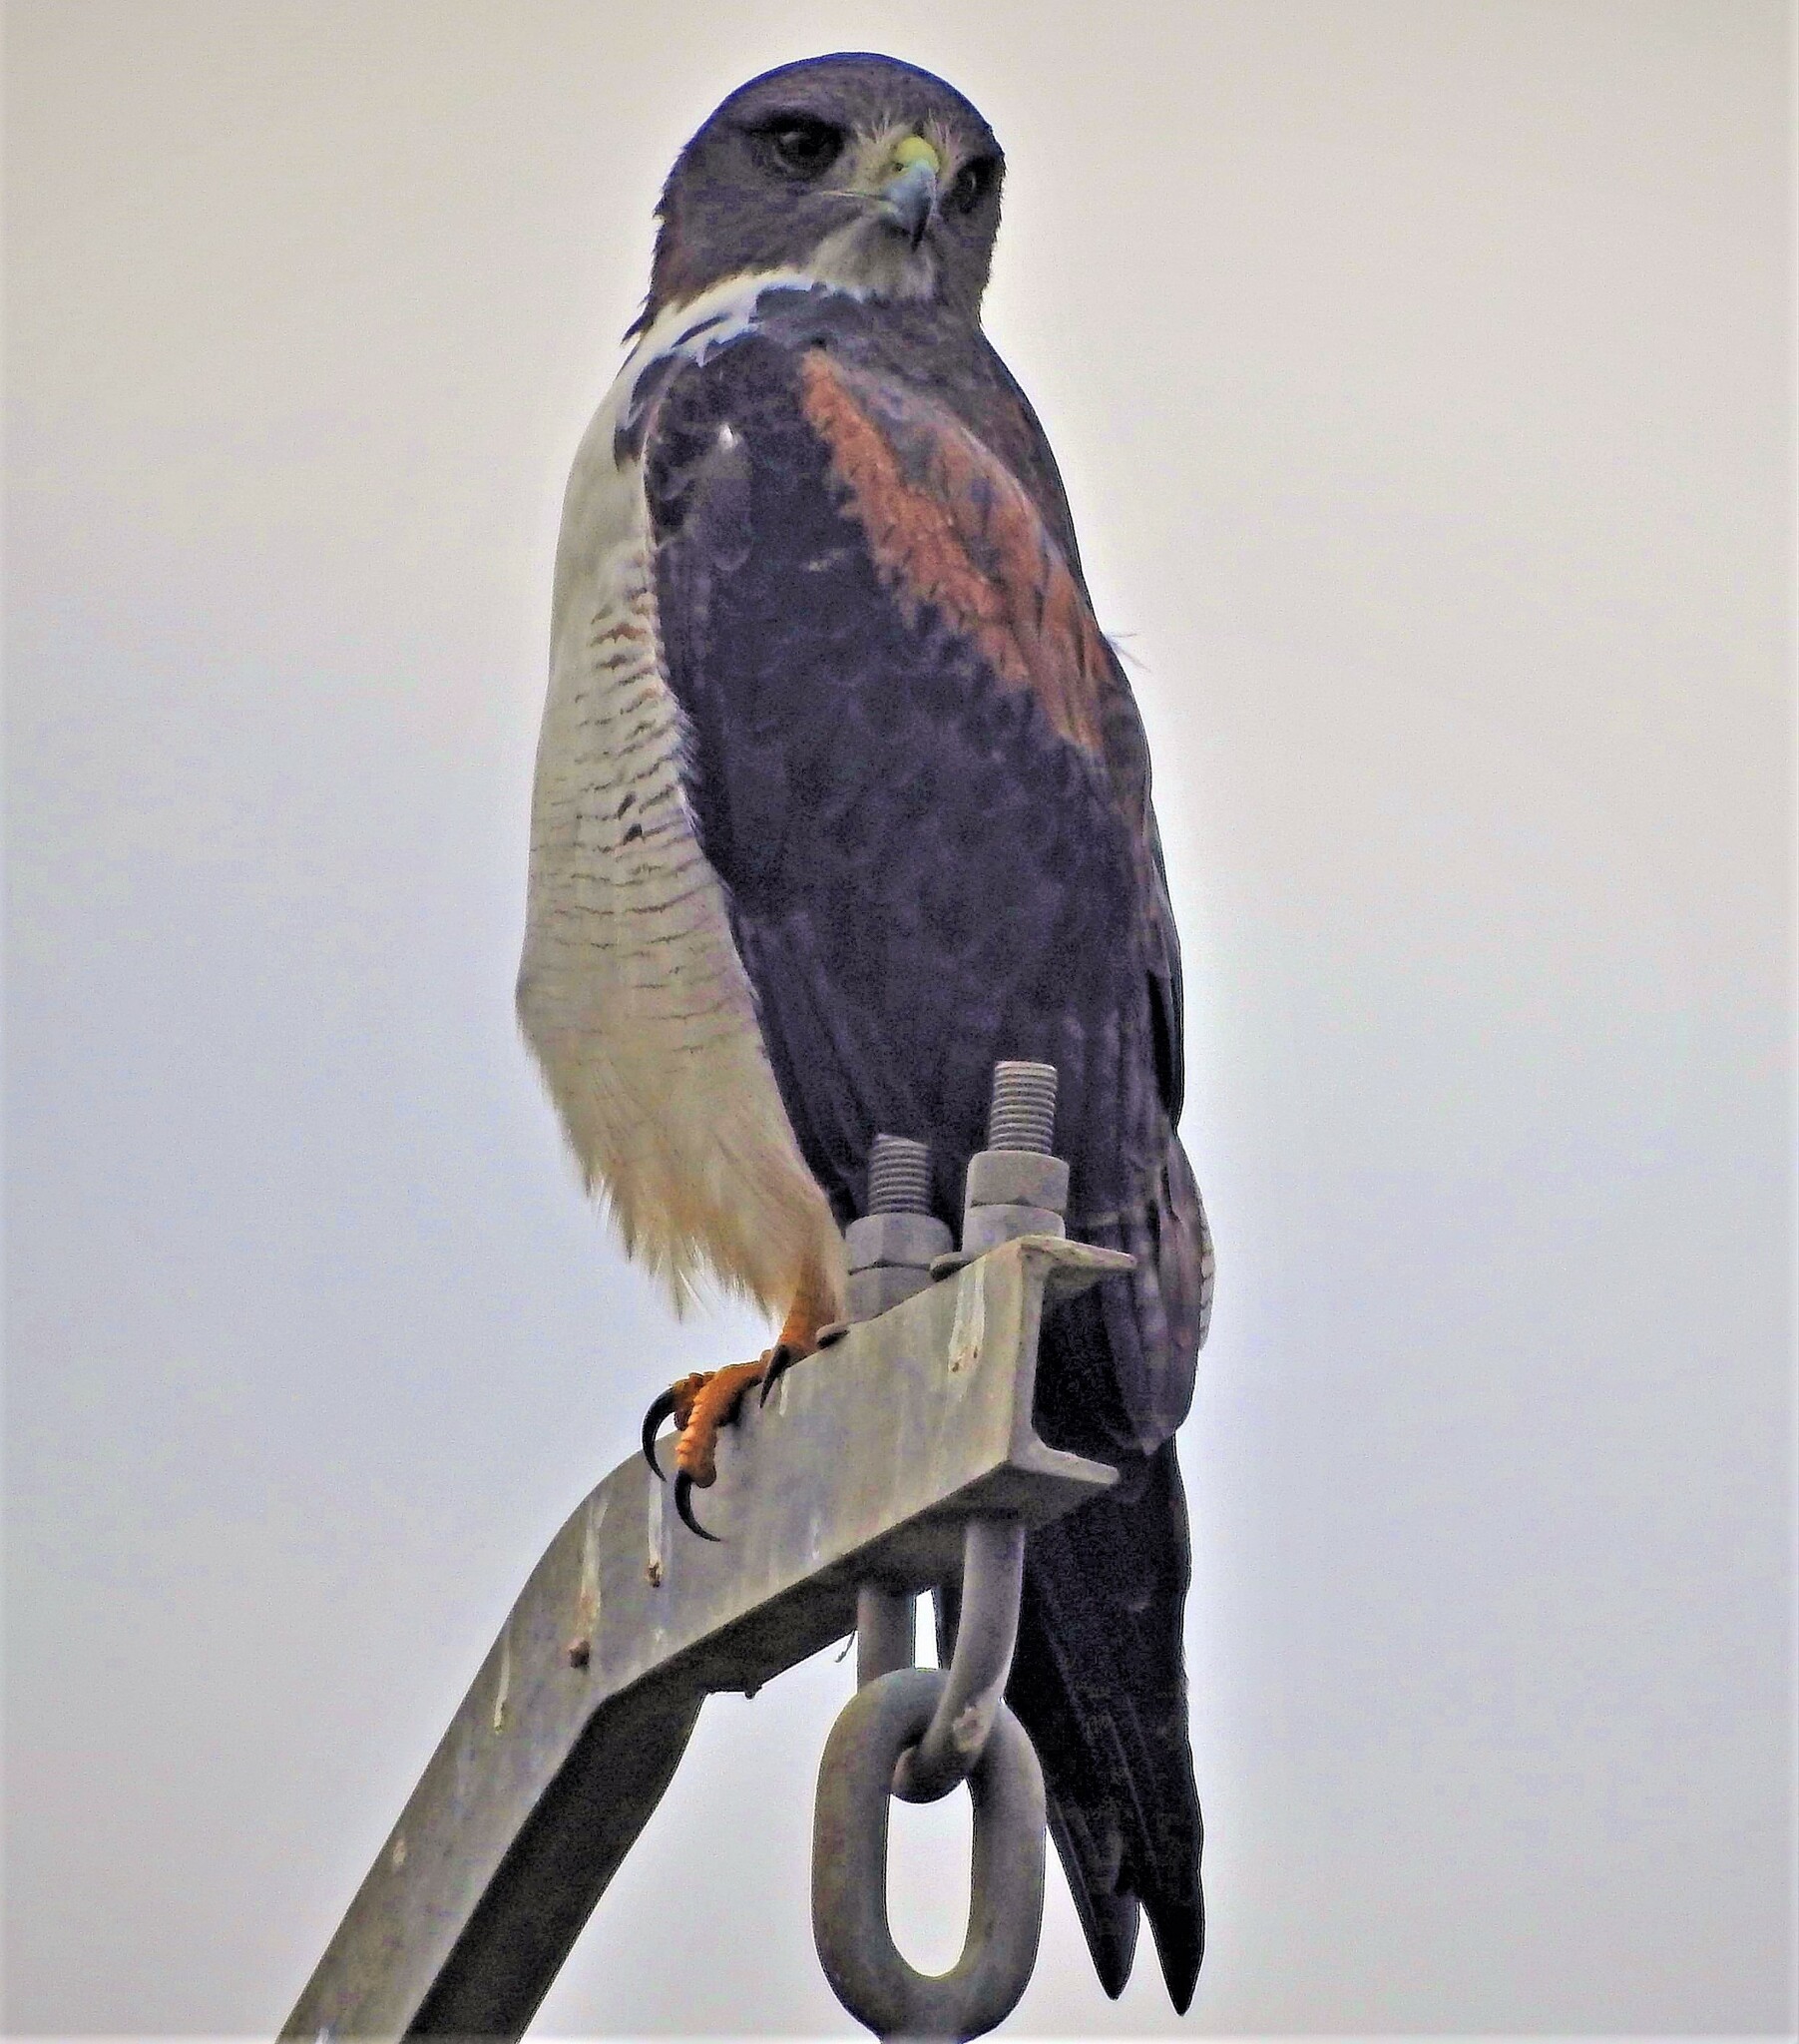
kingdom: Animalia
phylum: Chordata
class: Aves
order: Accipitriformes
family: Accipitridae
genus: Buteo
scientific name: Buteo albicaudatus
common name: White-tailed hawk
